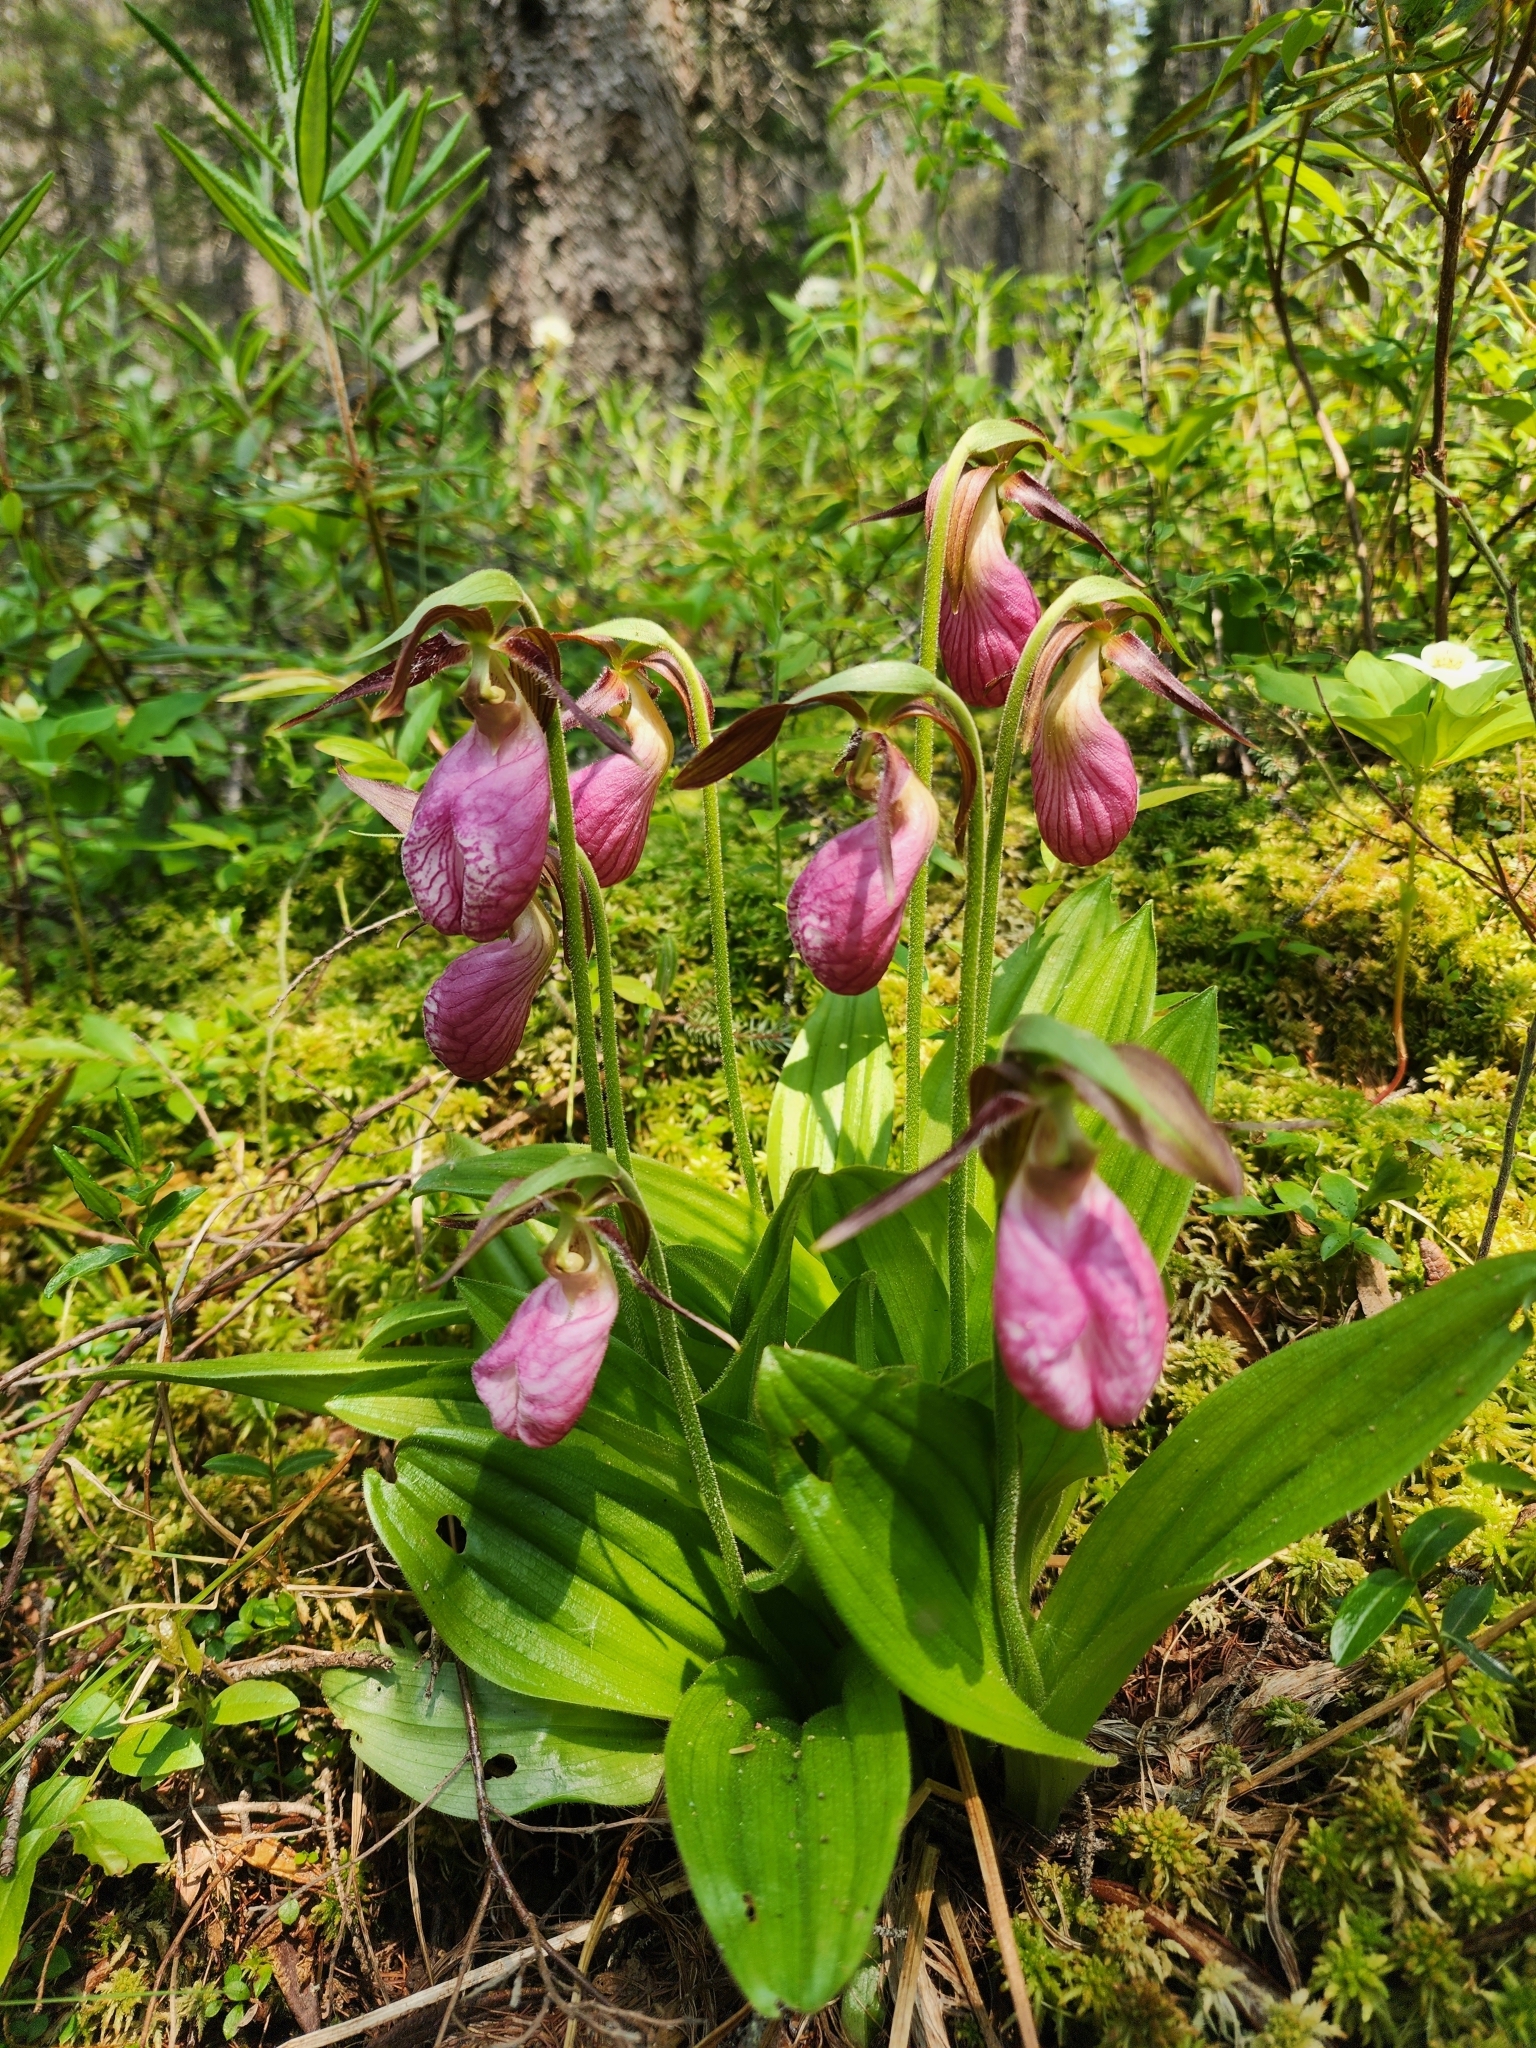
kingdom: Plantae
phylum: Tracheophyta
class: Liliopsida
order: Asparagales
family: Orchidaceae
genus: Cypripedium
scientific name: Cypripedium acaule
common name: Pink lady's-slipper
